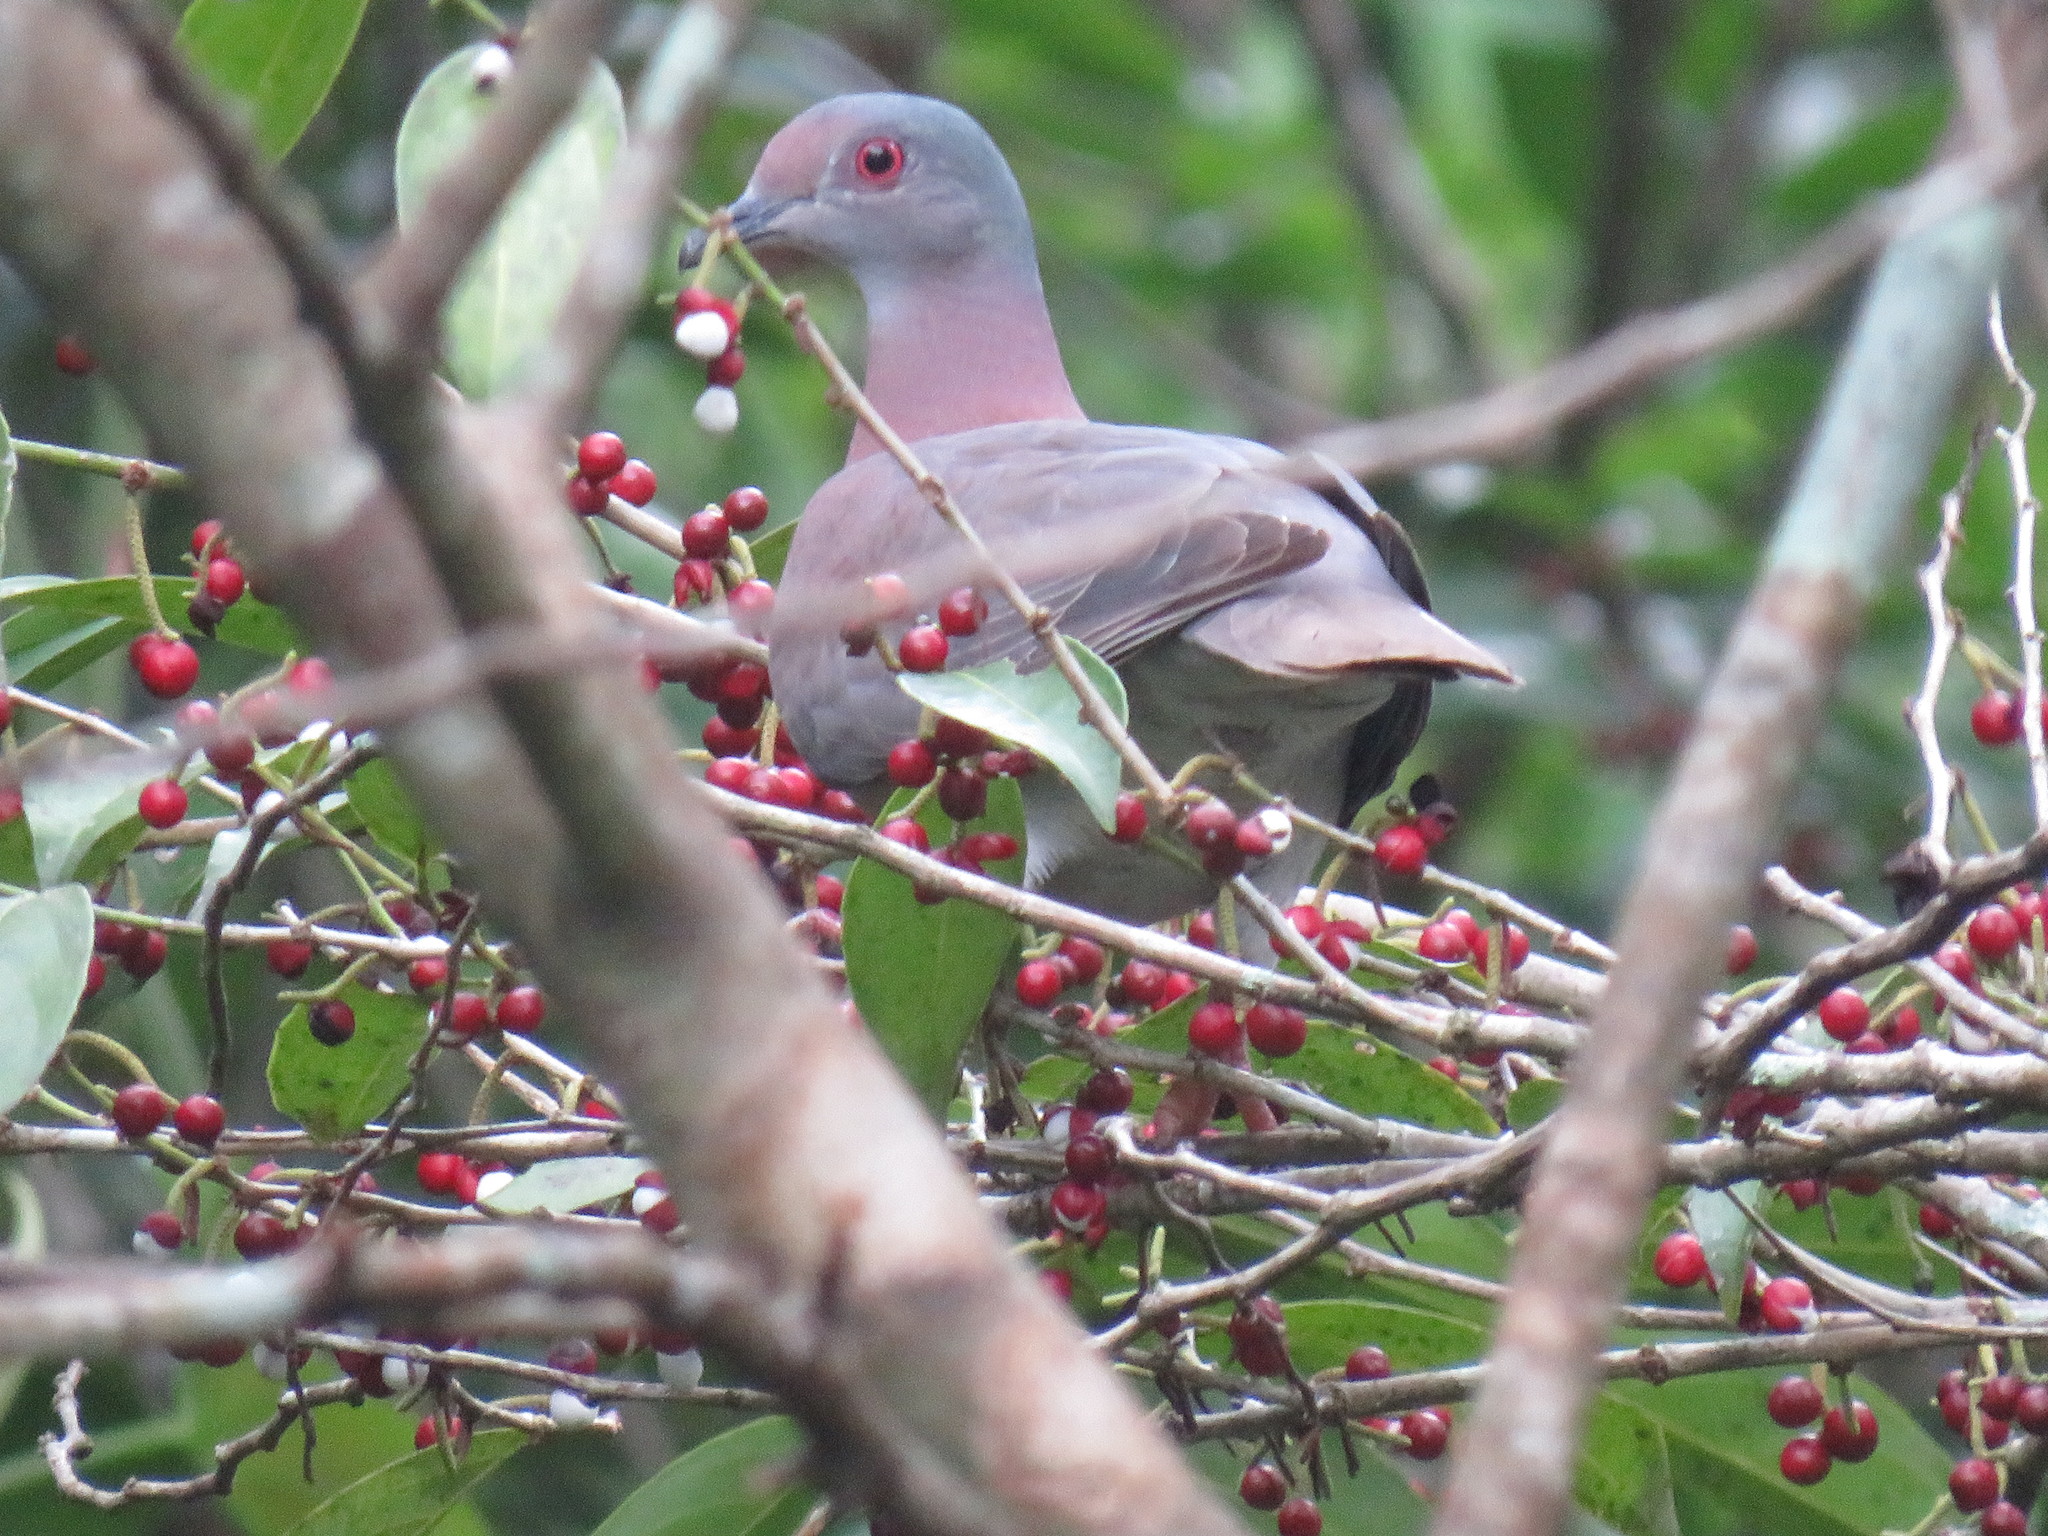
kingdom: Animalia
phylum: Chordata
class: Aves
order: Columbiformes
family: Columbidae
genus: Patagioenas
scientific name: Patagioenas cayennensis
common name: Pale-vented pigeon
